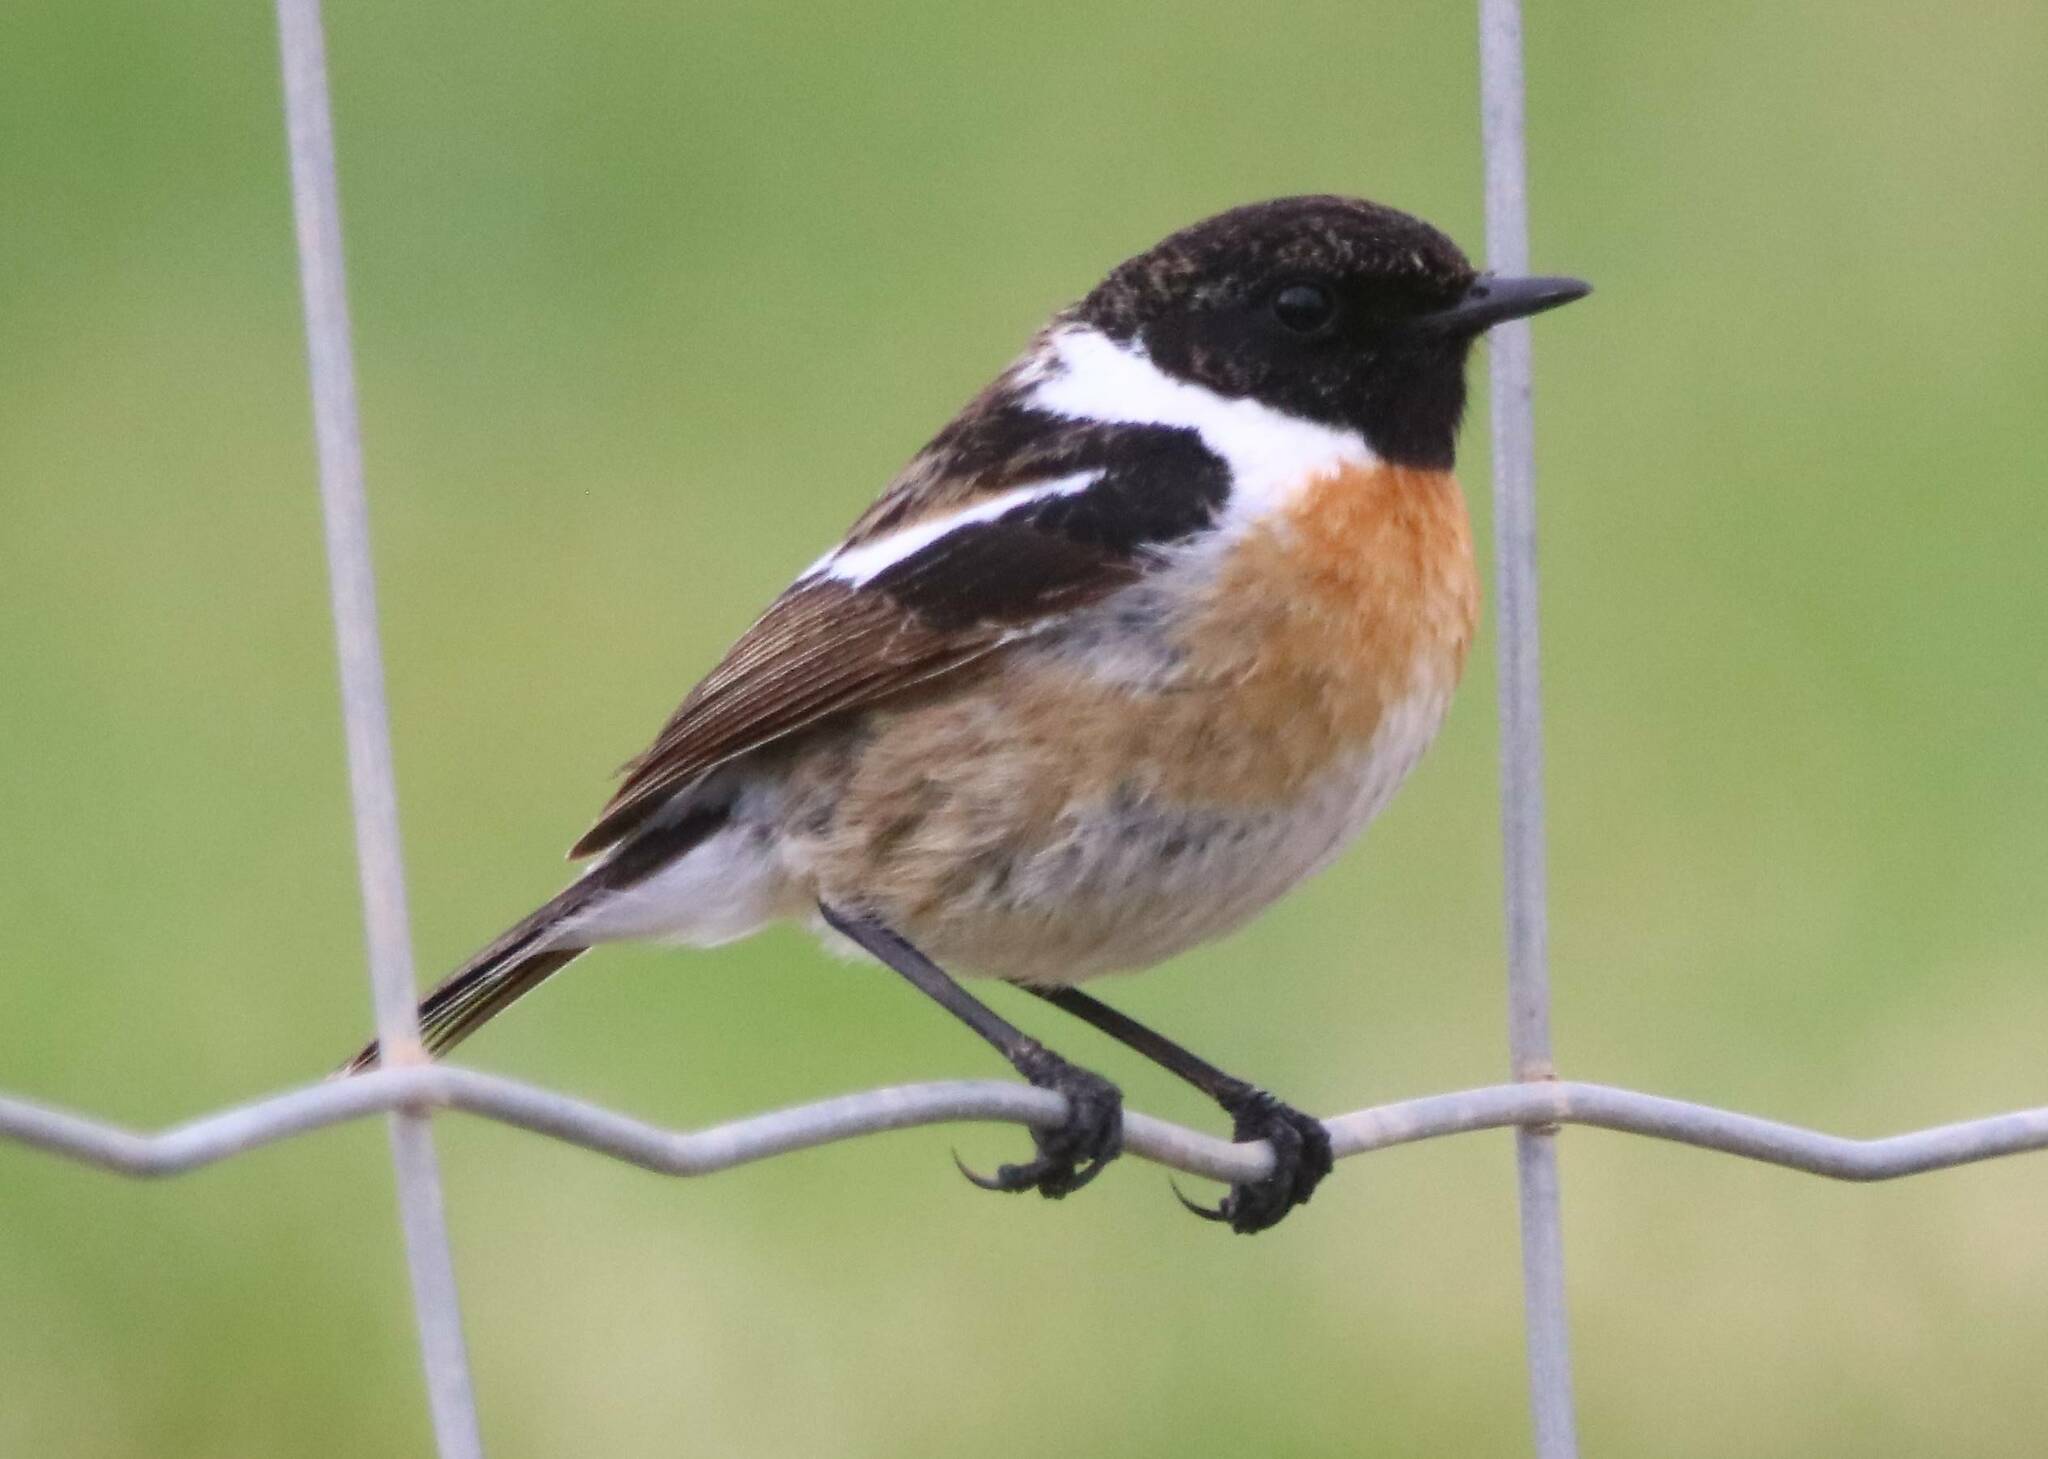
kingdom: Animalia
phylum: Chordata
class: Aves
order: Passeriformes
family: Muscicapidae
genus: Saxicola
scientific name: Saxicola rubicola
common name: European stonechat
